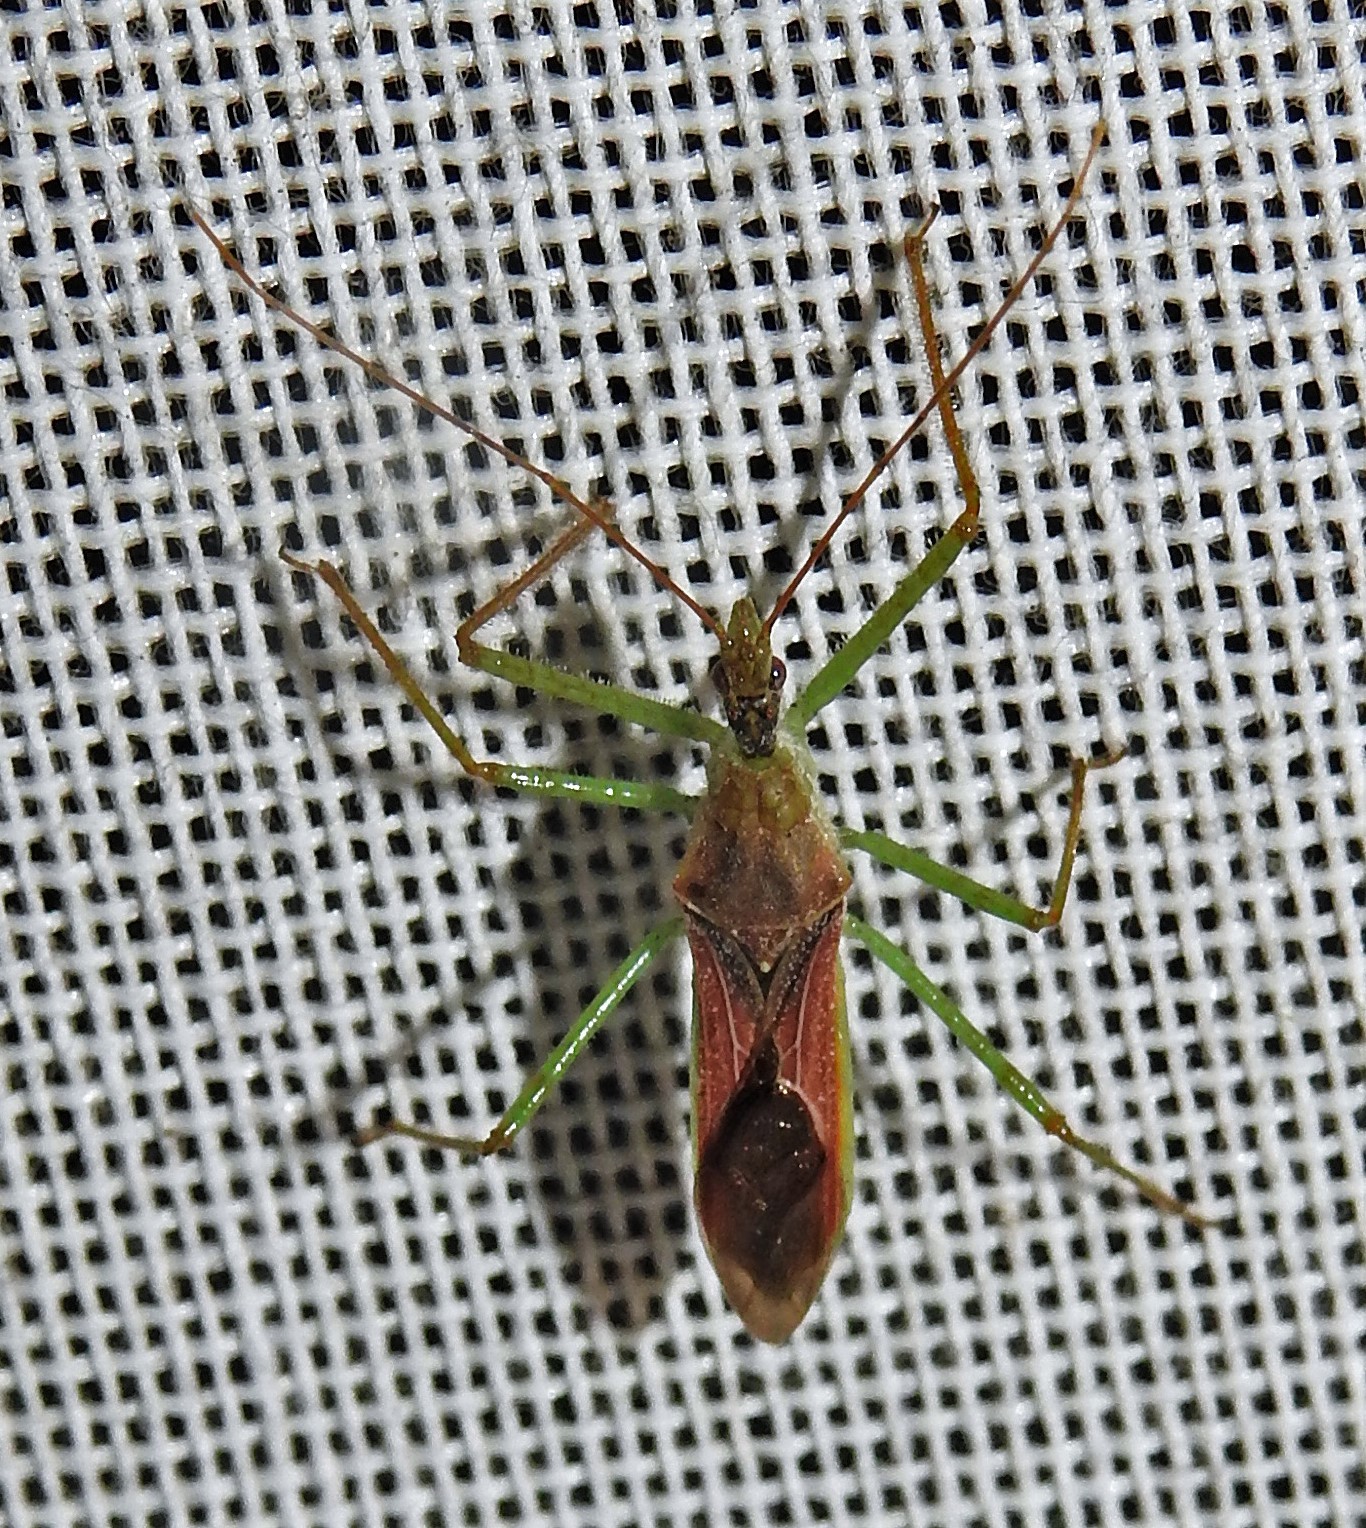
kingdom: Animalia
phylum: Arthropoda
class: Insecta
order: Hemiptera
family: Reduviidae
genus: Zelus
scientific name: Zelus renardii
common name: Assassin bug
